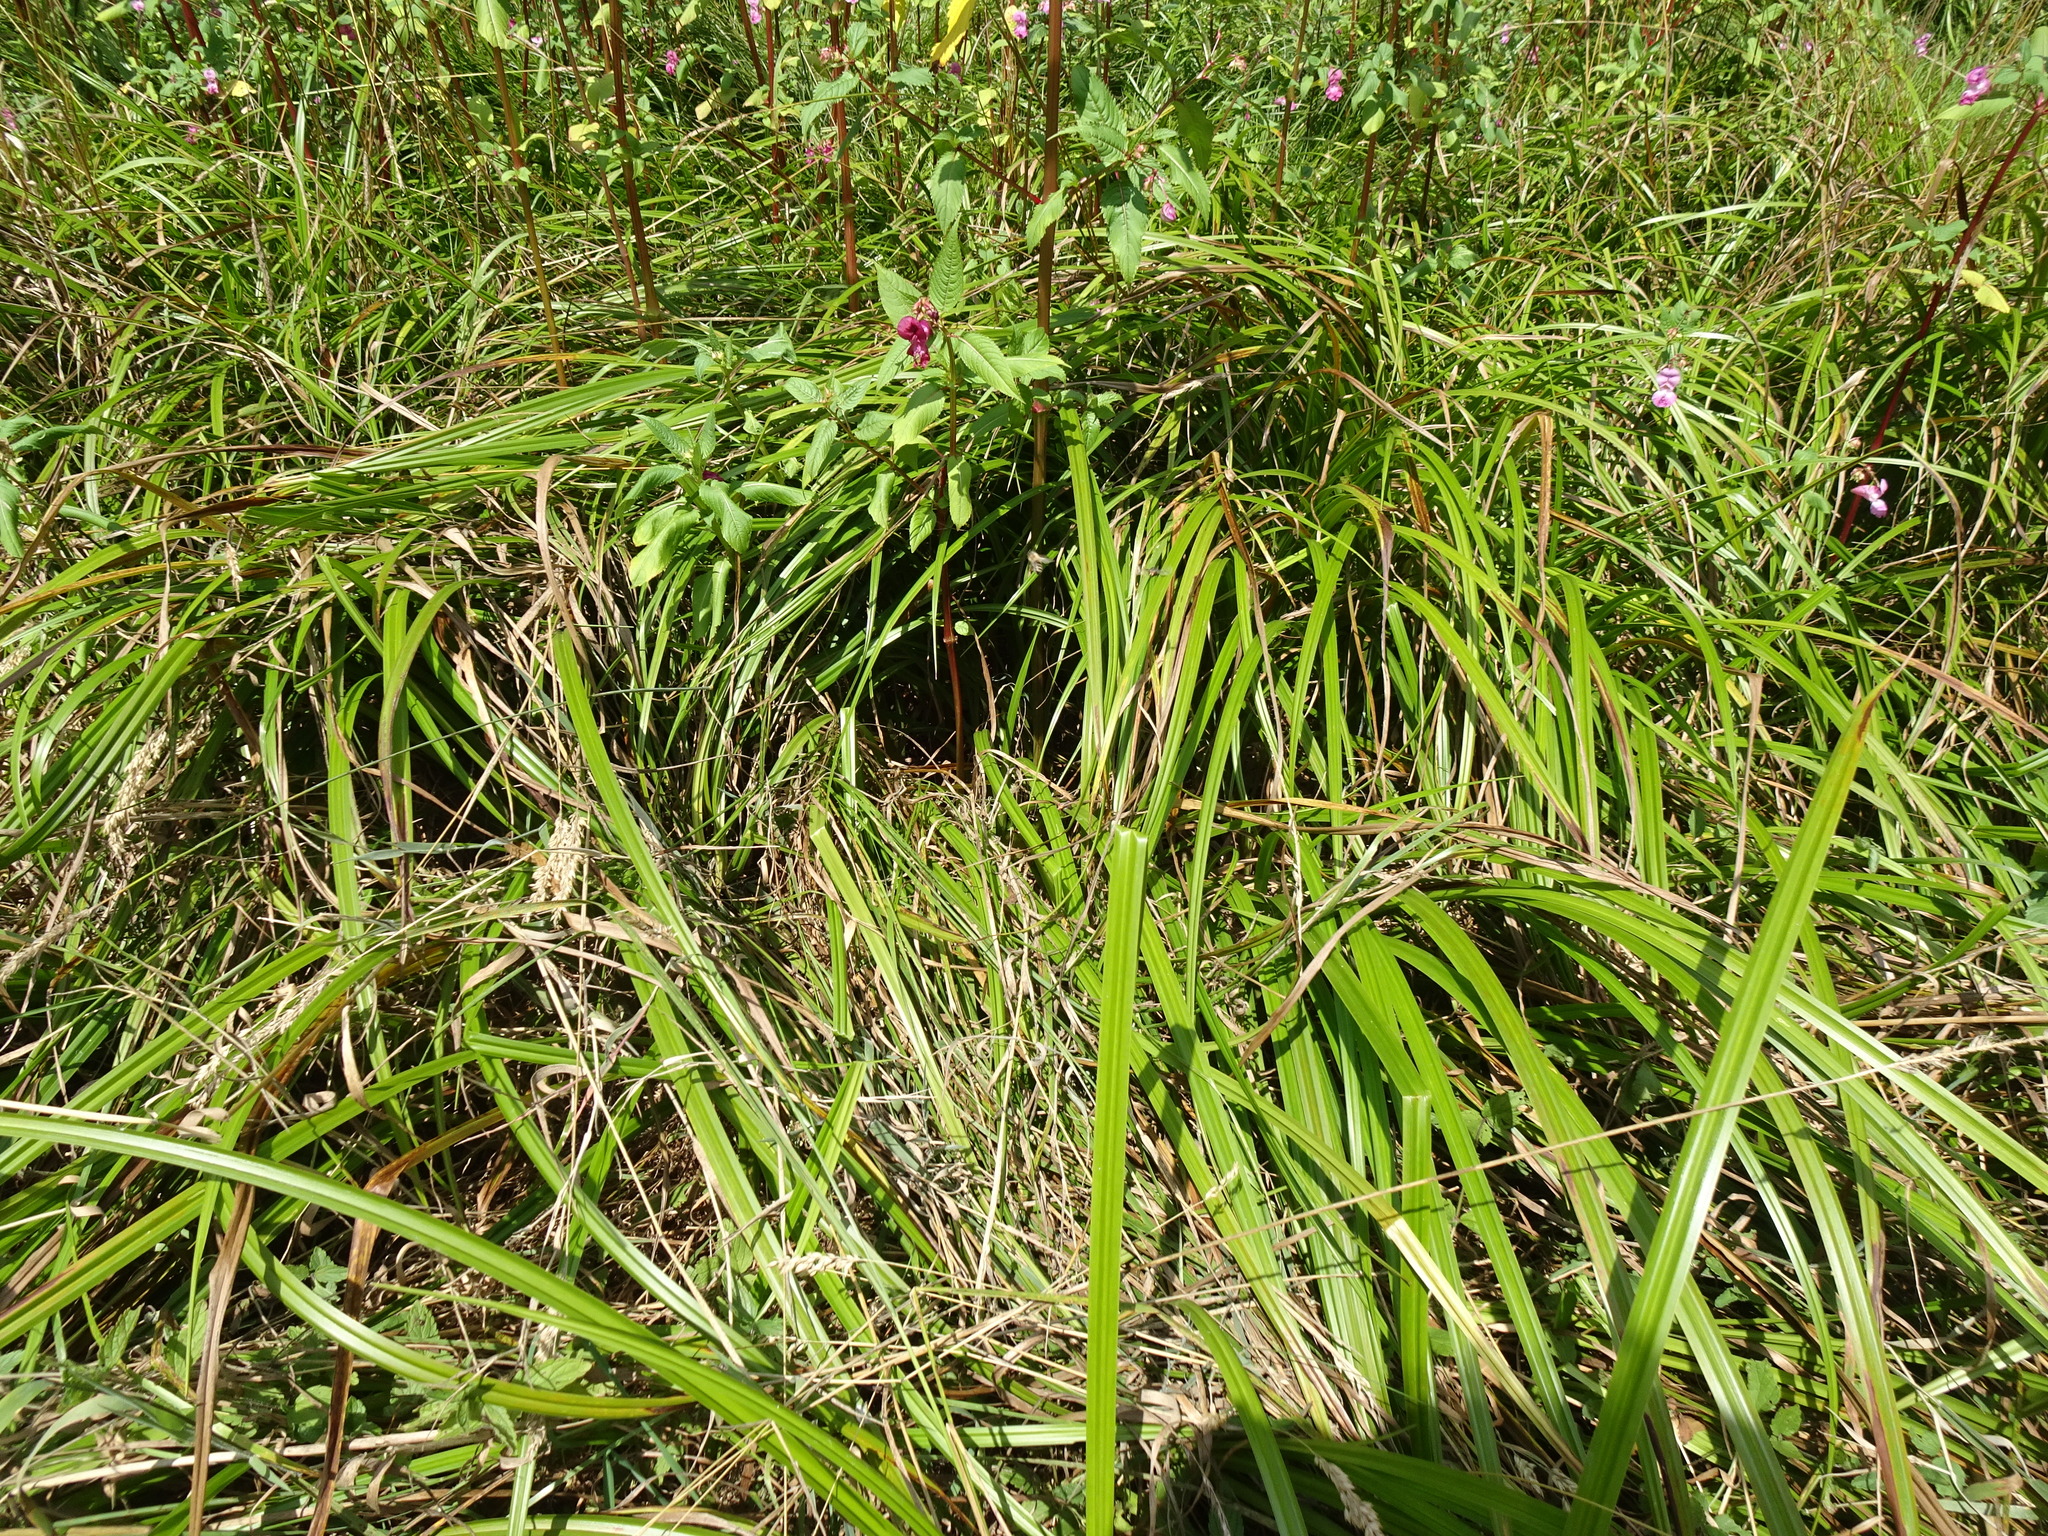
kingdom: Plantae
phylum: Tracheophyta
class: Liliopsida
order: Poales
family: Cyperaceae
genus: Scirpus
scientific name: Scirpus sylvaticus
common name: Wood club-rush
